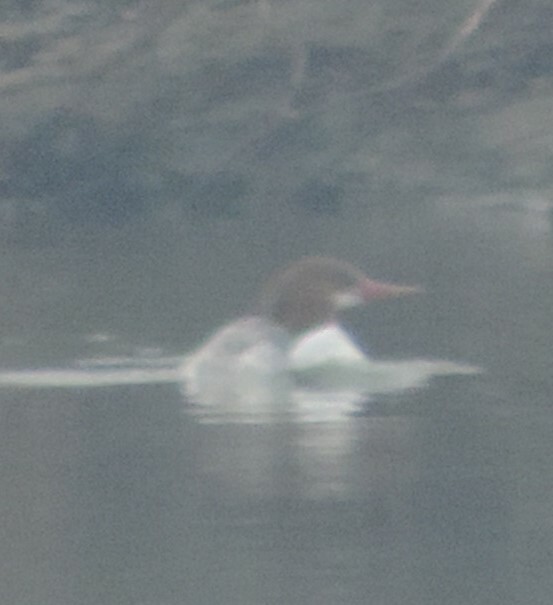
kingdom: Animalia
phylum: Chordata
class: Aves
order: Anseriformes
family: Anatidae
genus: Mergus
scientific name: Mergus merganser
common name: Common merganser
